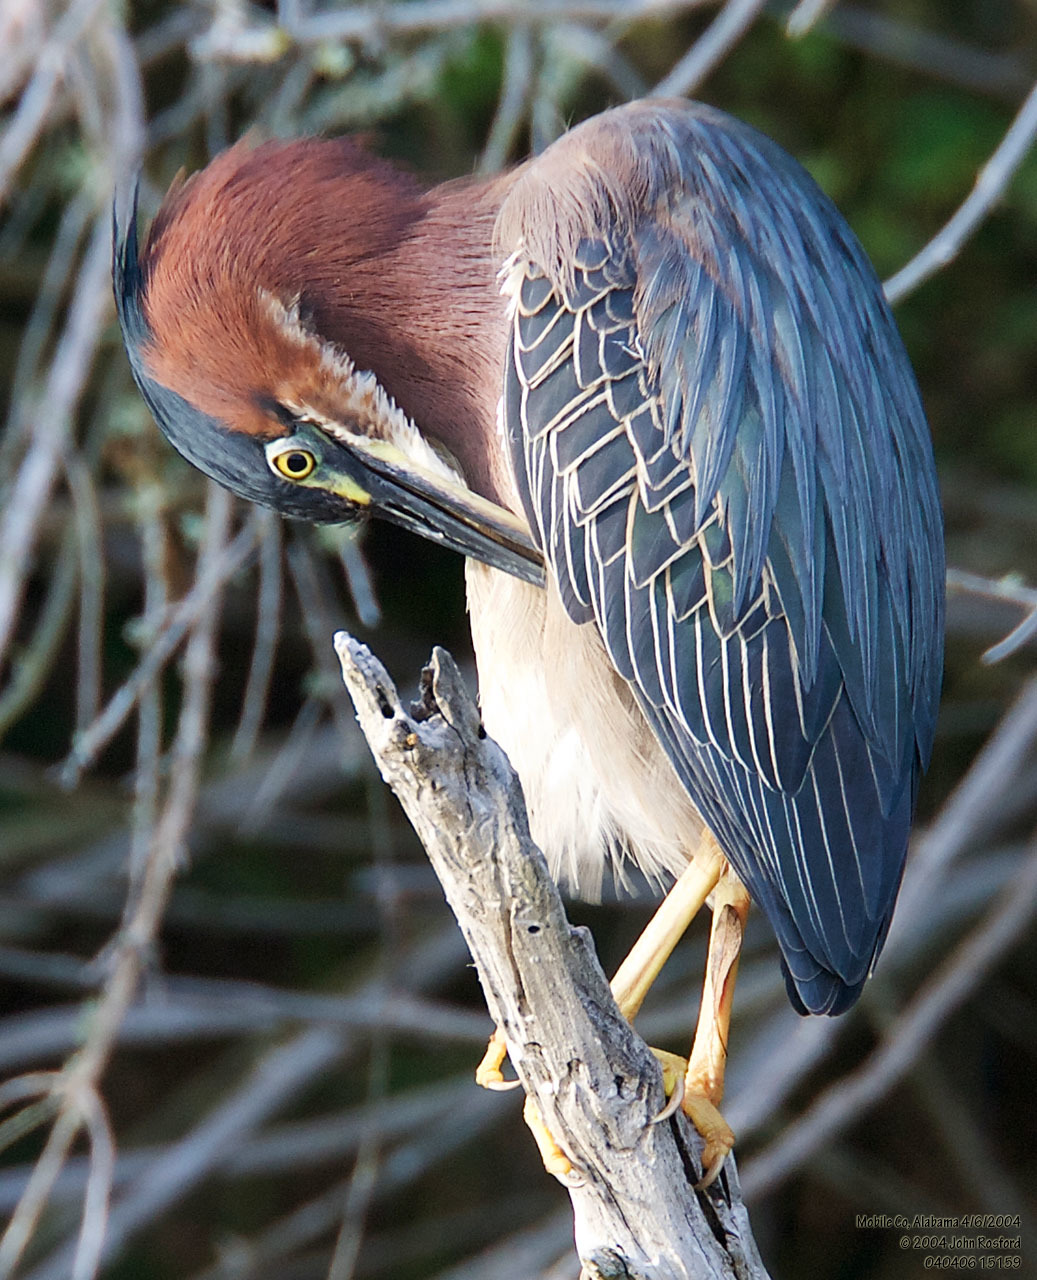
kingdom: Animalia
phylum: Chordata
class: Aves
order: Pelecaniformes
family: Ardeidae
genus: Butorides
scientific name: Butorides virescens
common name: Green heron
